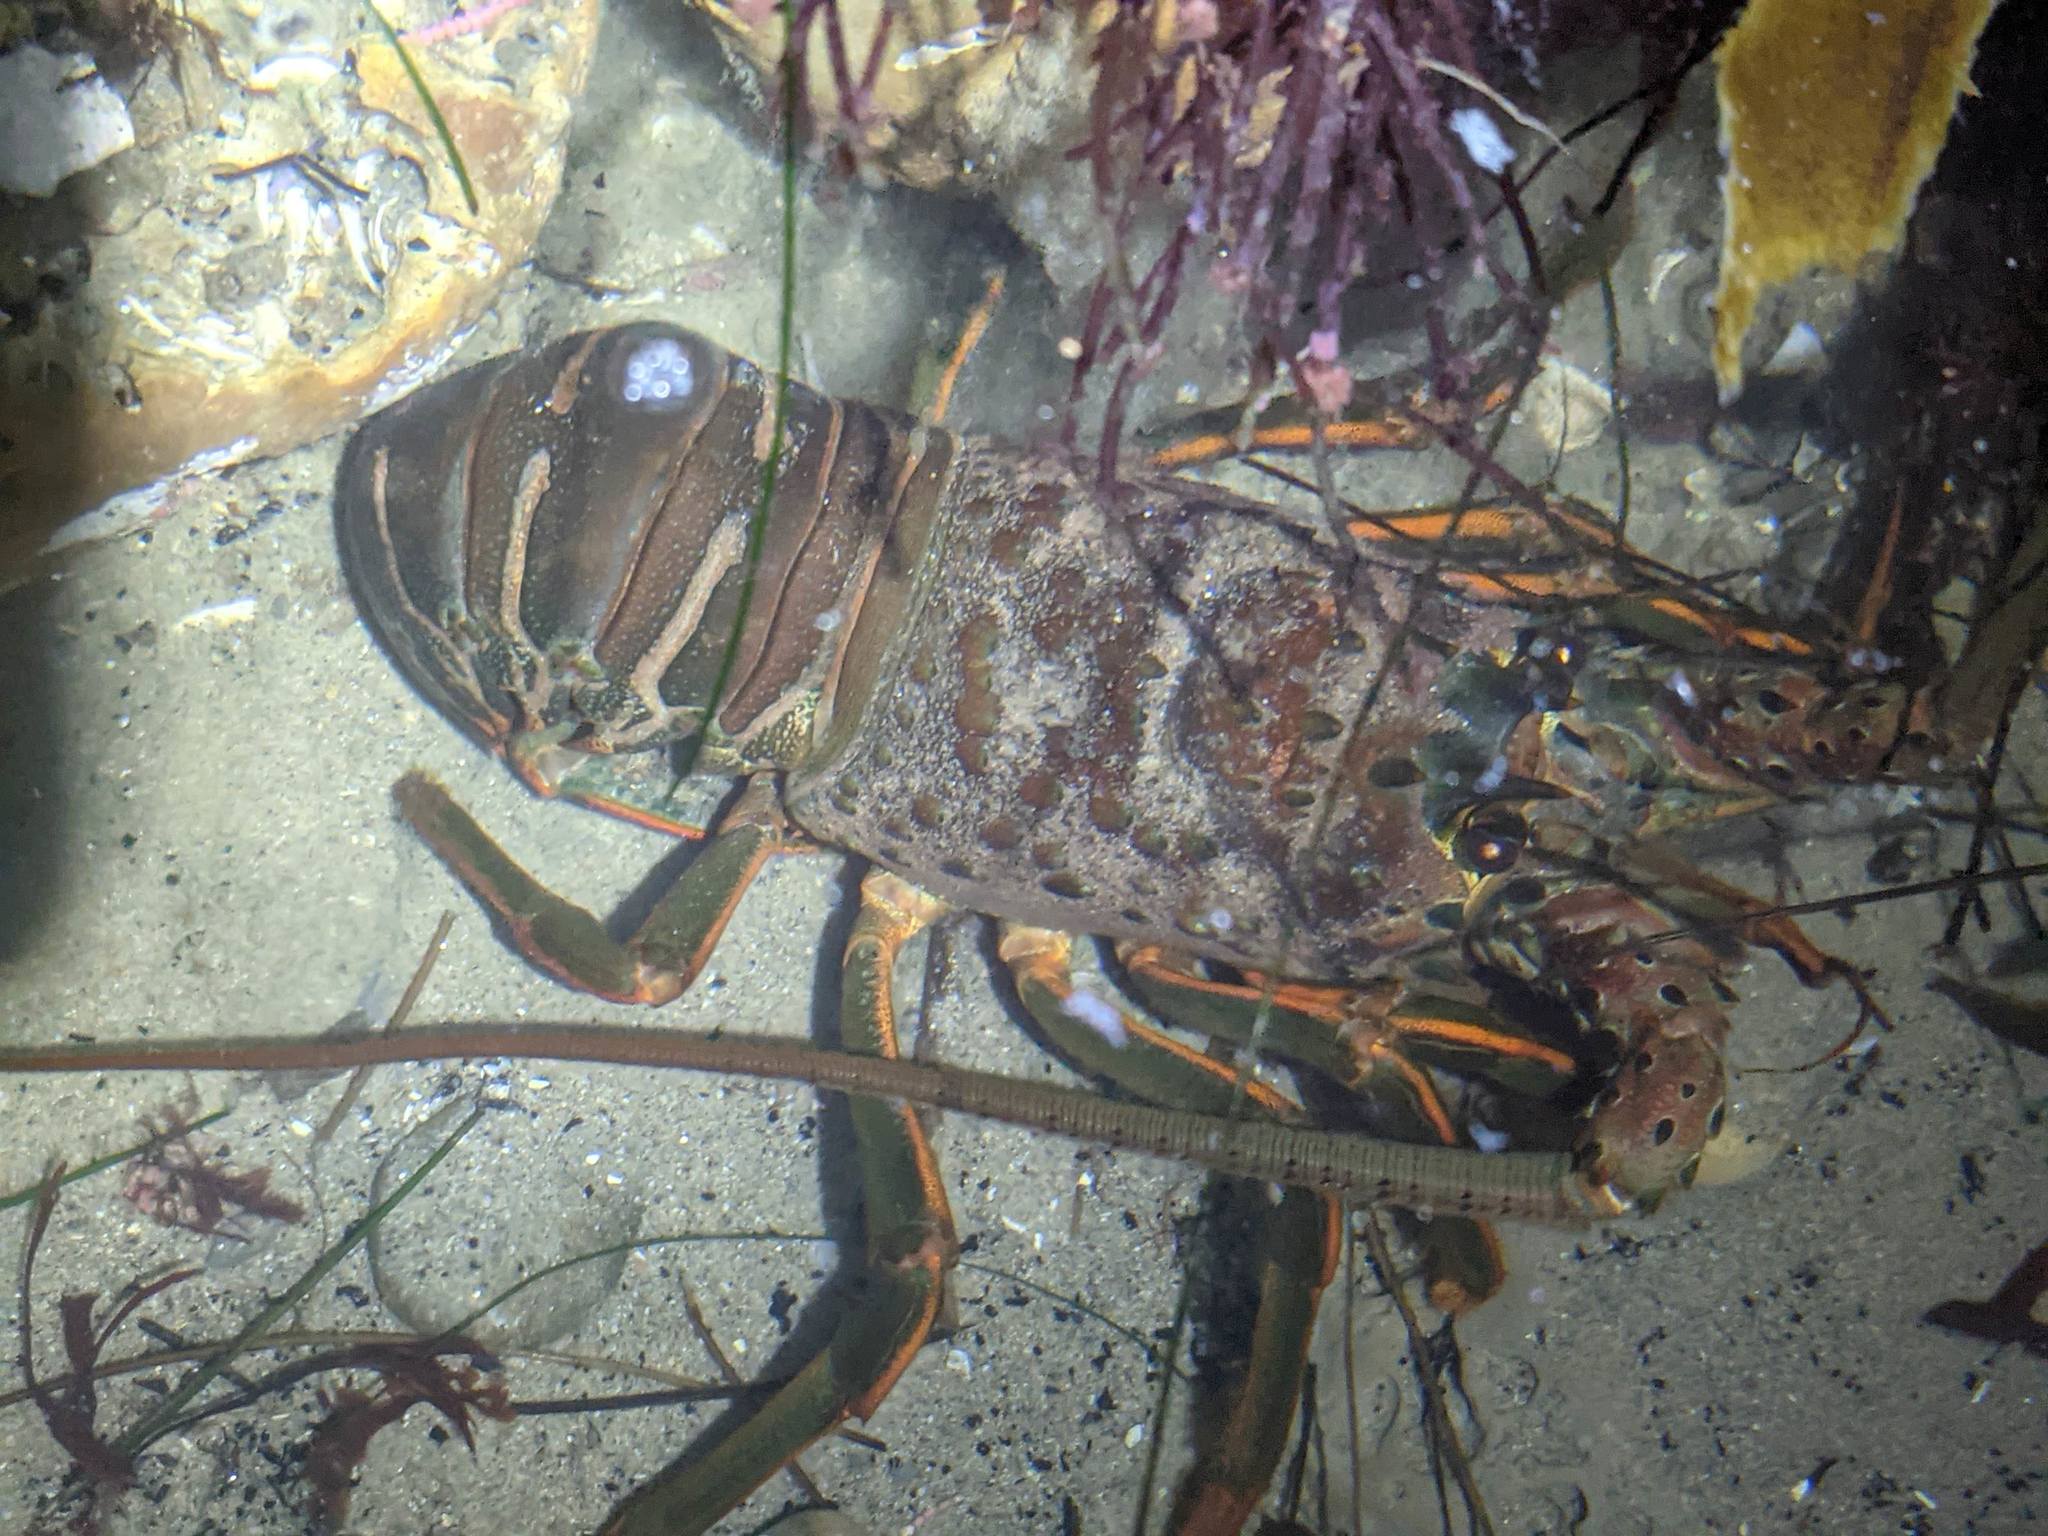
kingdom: Animalia
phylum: Arthropoda
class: Malacostraca
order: Decapoda
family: Palinuridae
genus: Panulirus
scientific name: Panulirus interruptus
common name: California spiny lobster
